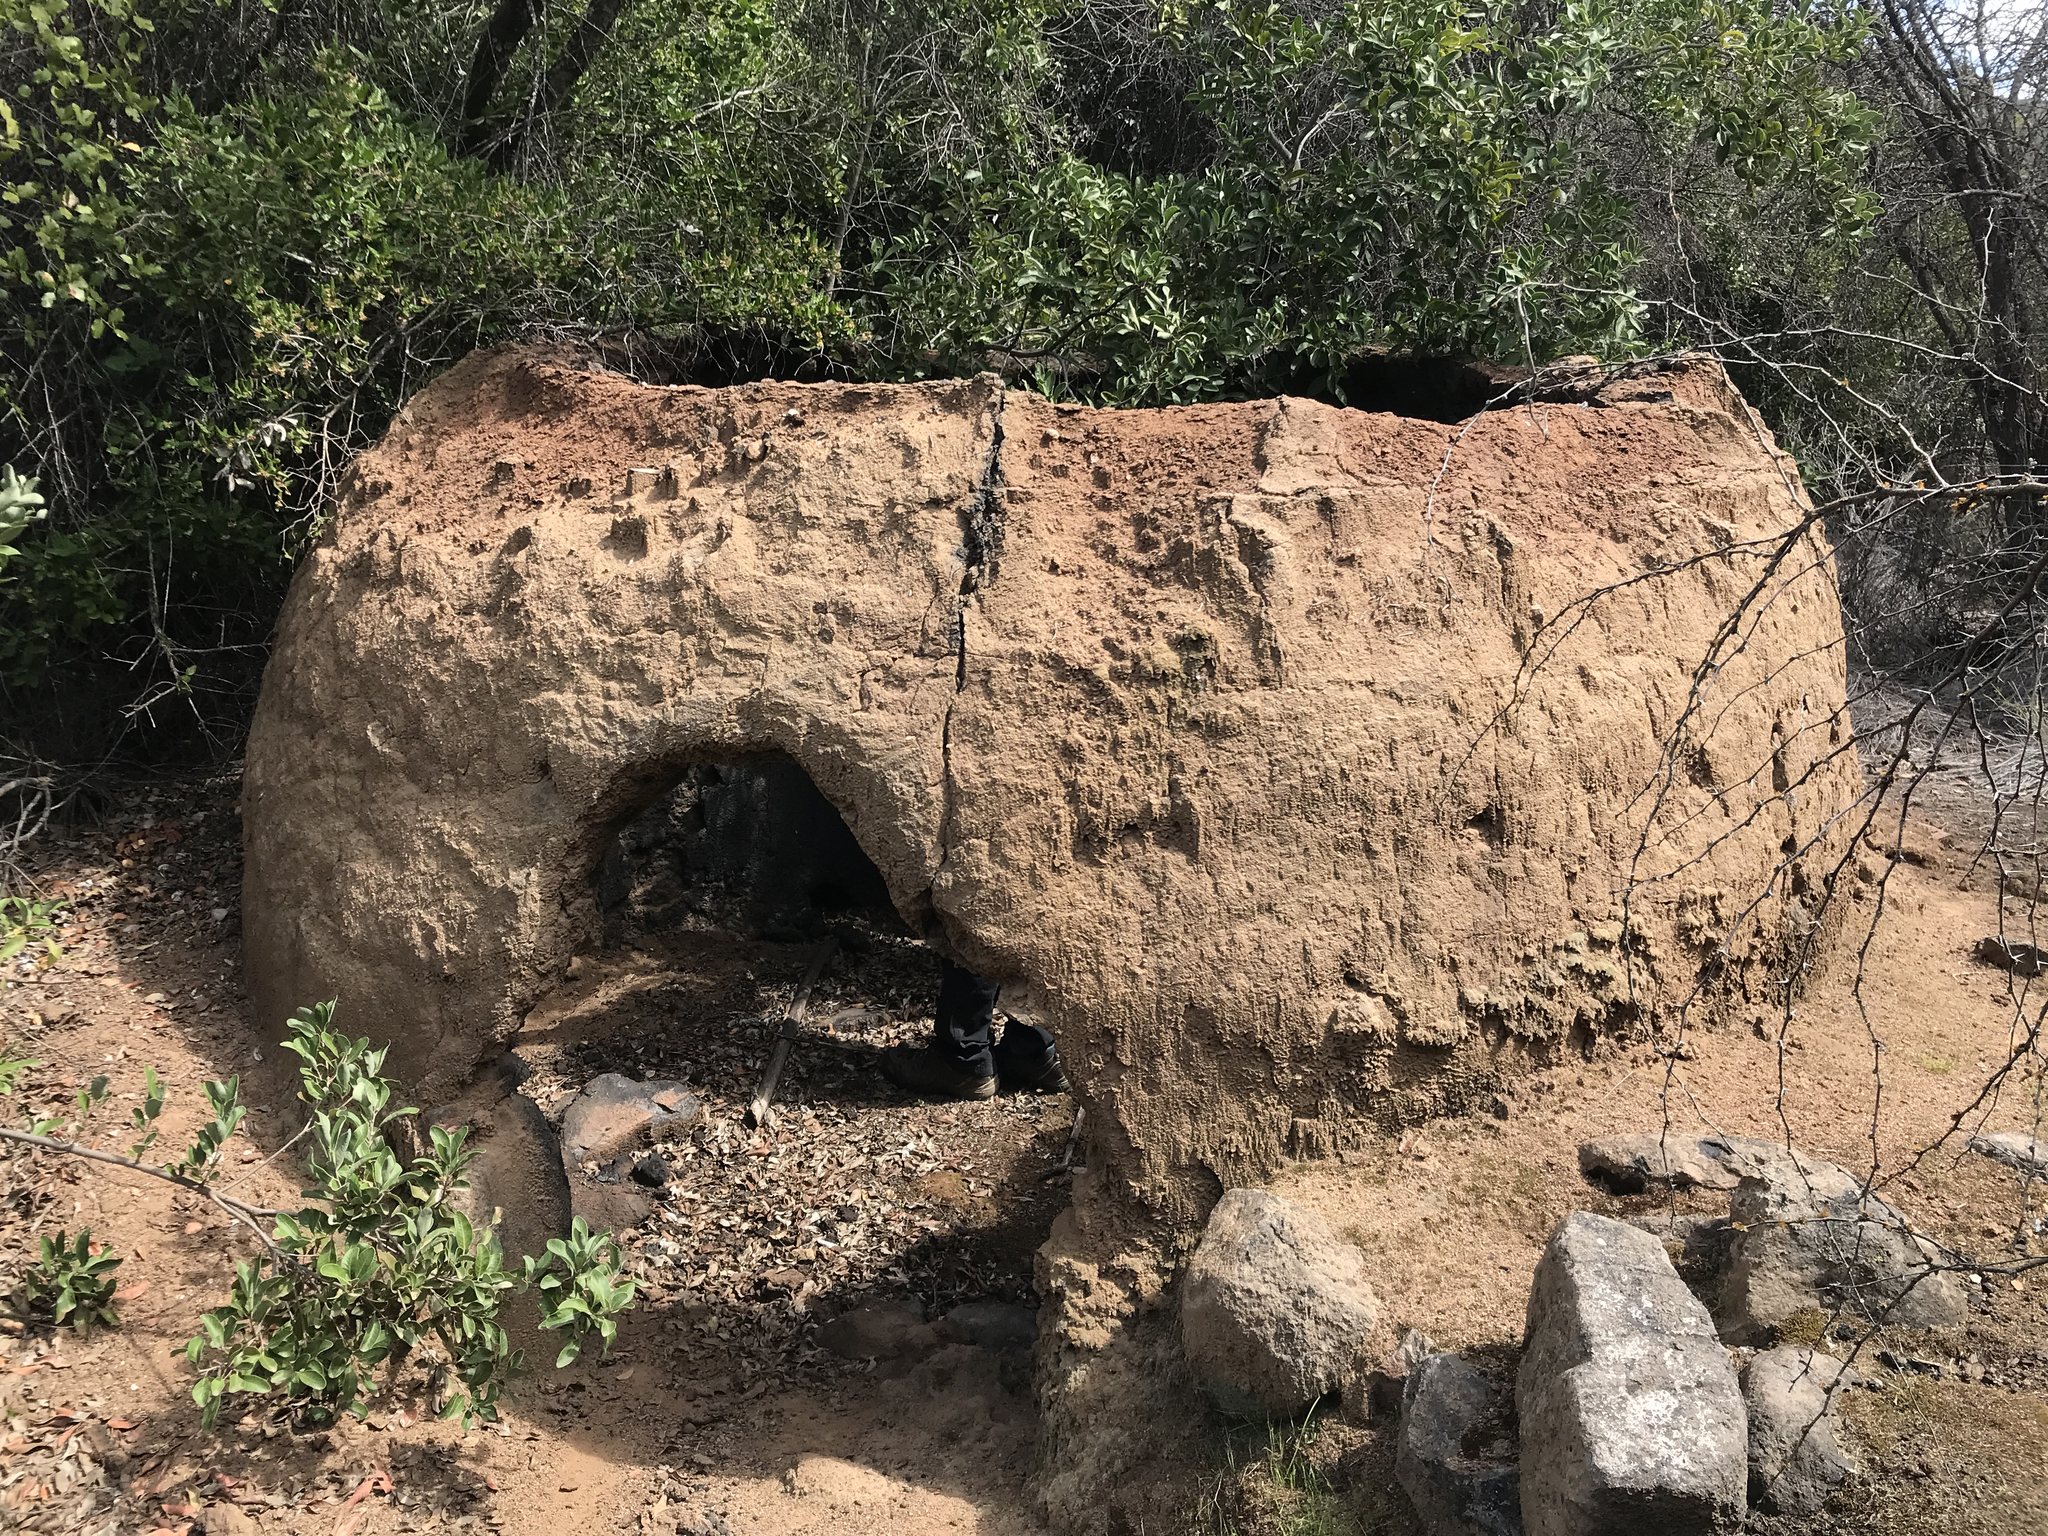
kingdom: Animalia
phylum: Arthropoda
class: Insecta
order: Hymenoptera
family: Sphecidae
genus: Sceliphron
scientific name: Sceliphron curvatum
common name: Pèlopèe
